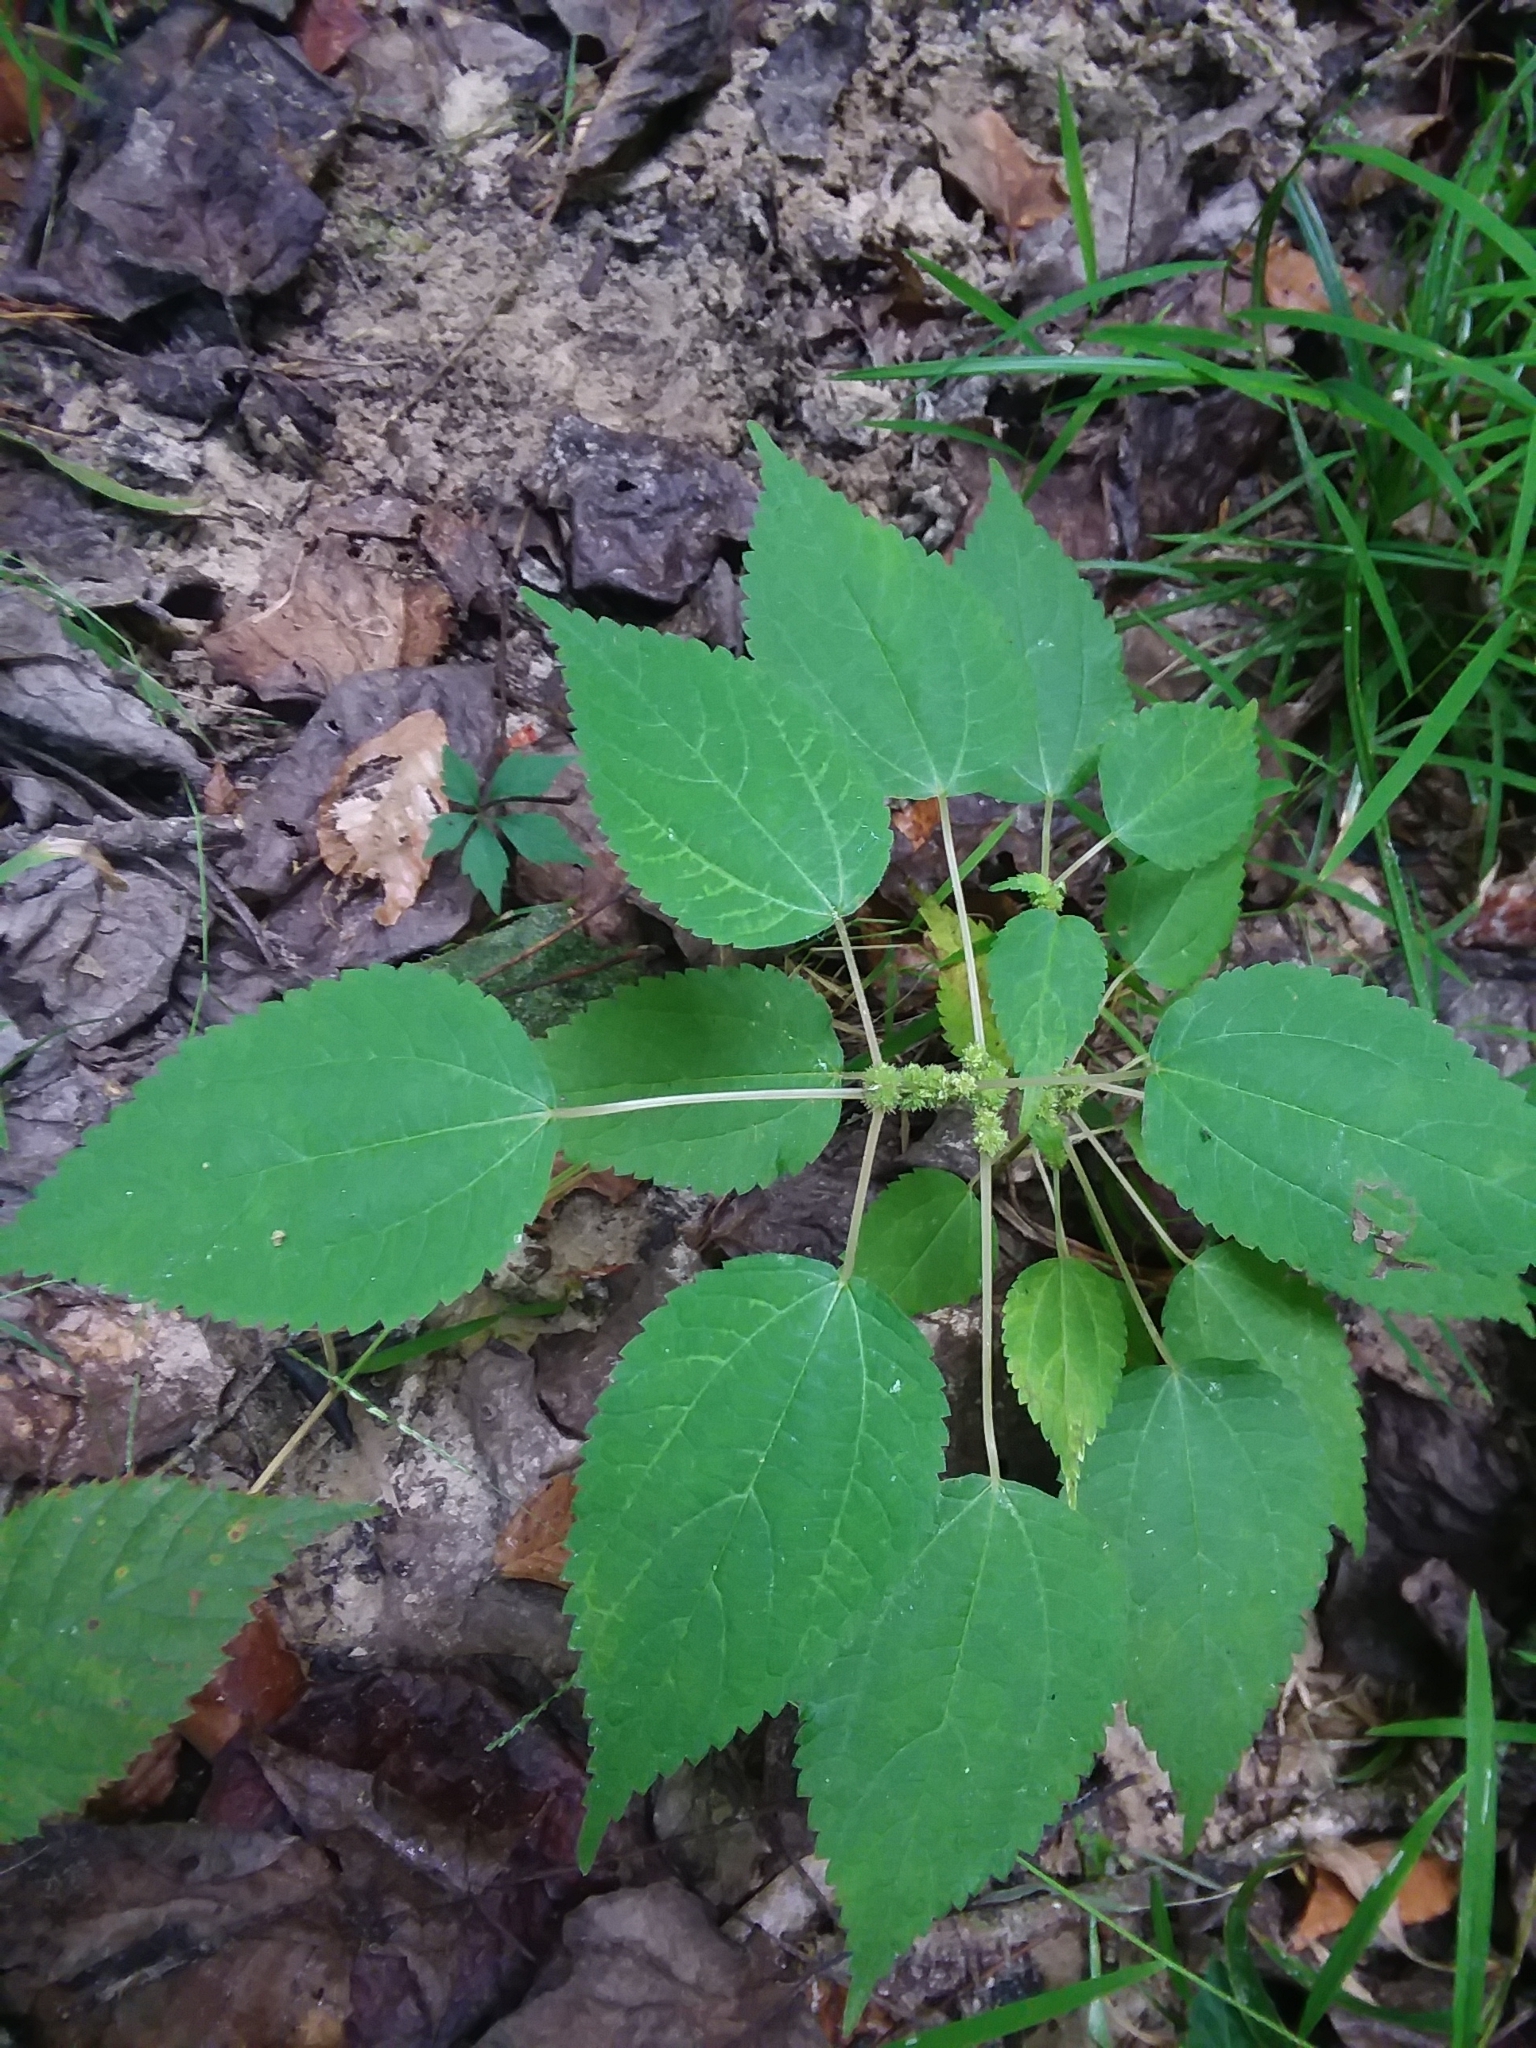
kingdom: Plantae
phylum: Tracheophyta
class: Magnoliopsida
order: Rosales
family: Urticaceae
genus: Boehmeria
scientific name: Boehmeria cylindrica
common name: Bog-hemp
